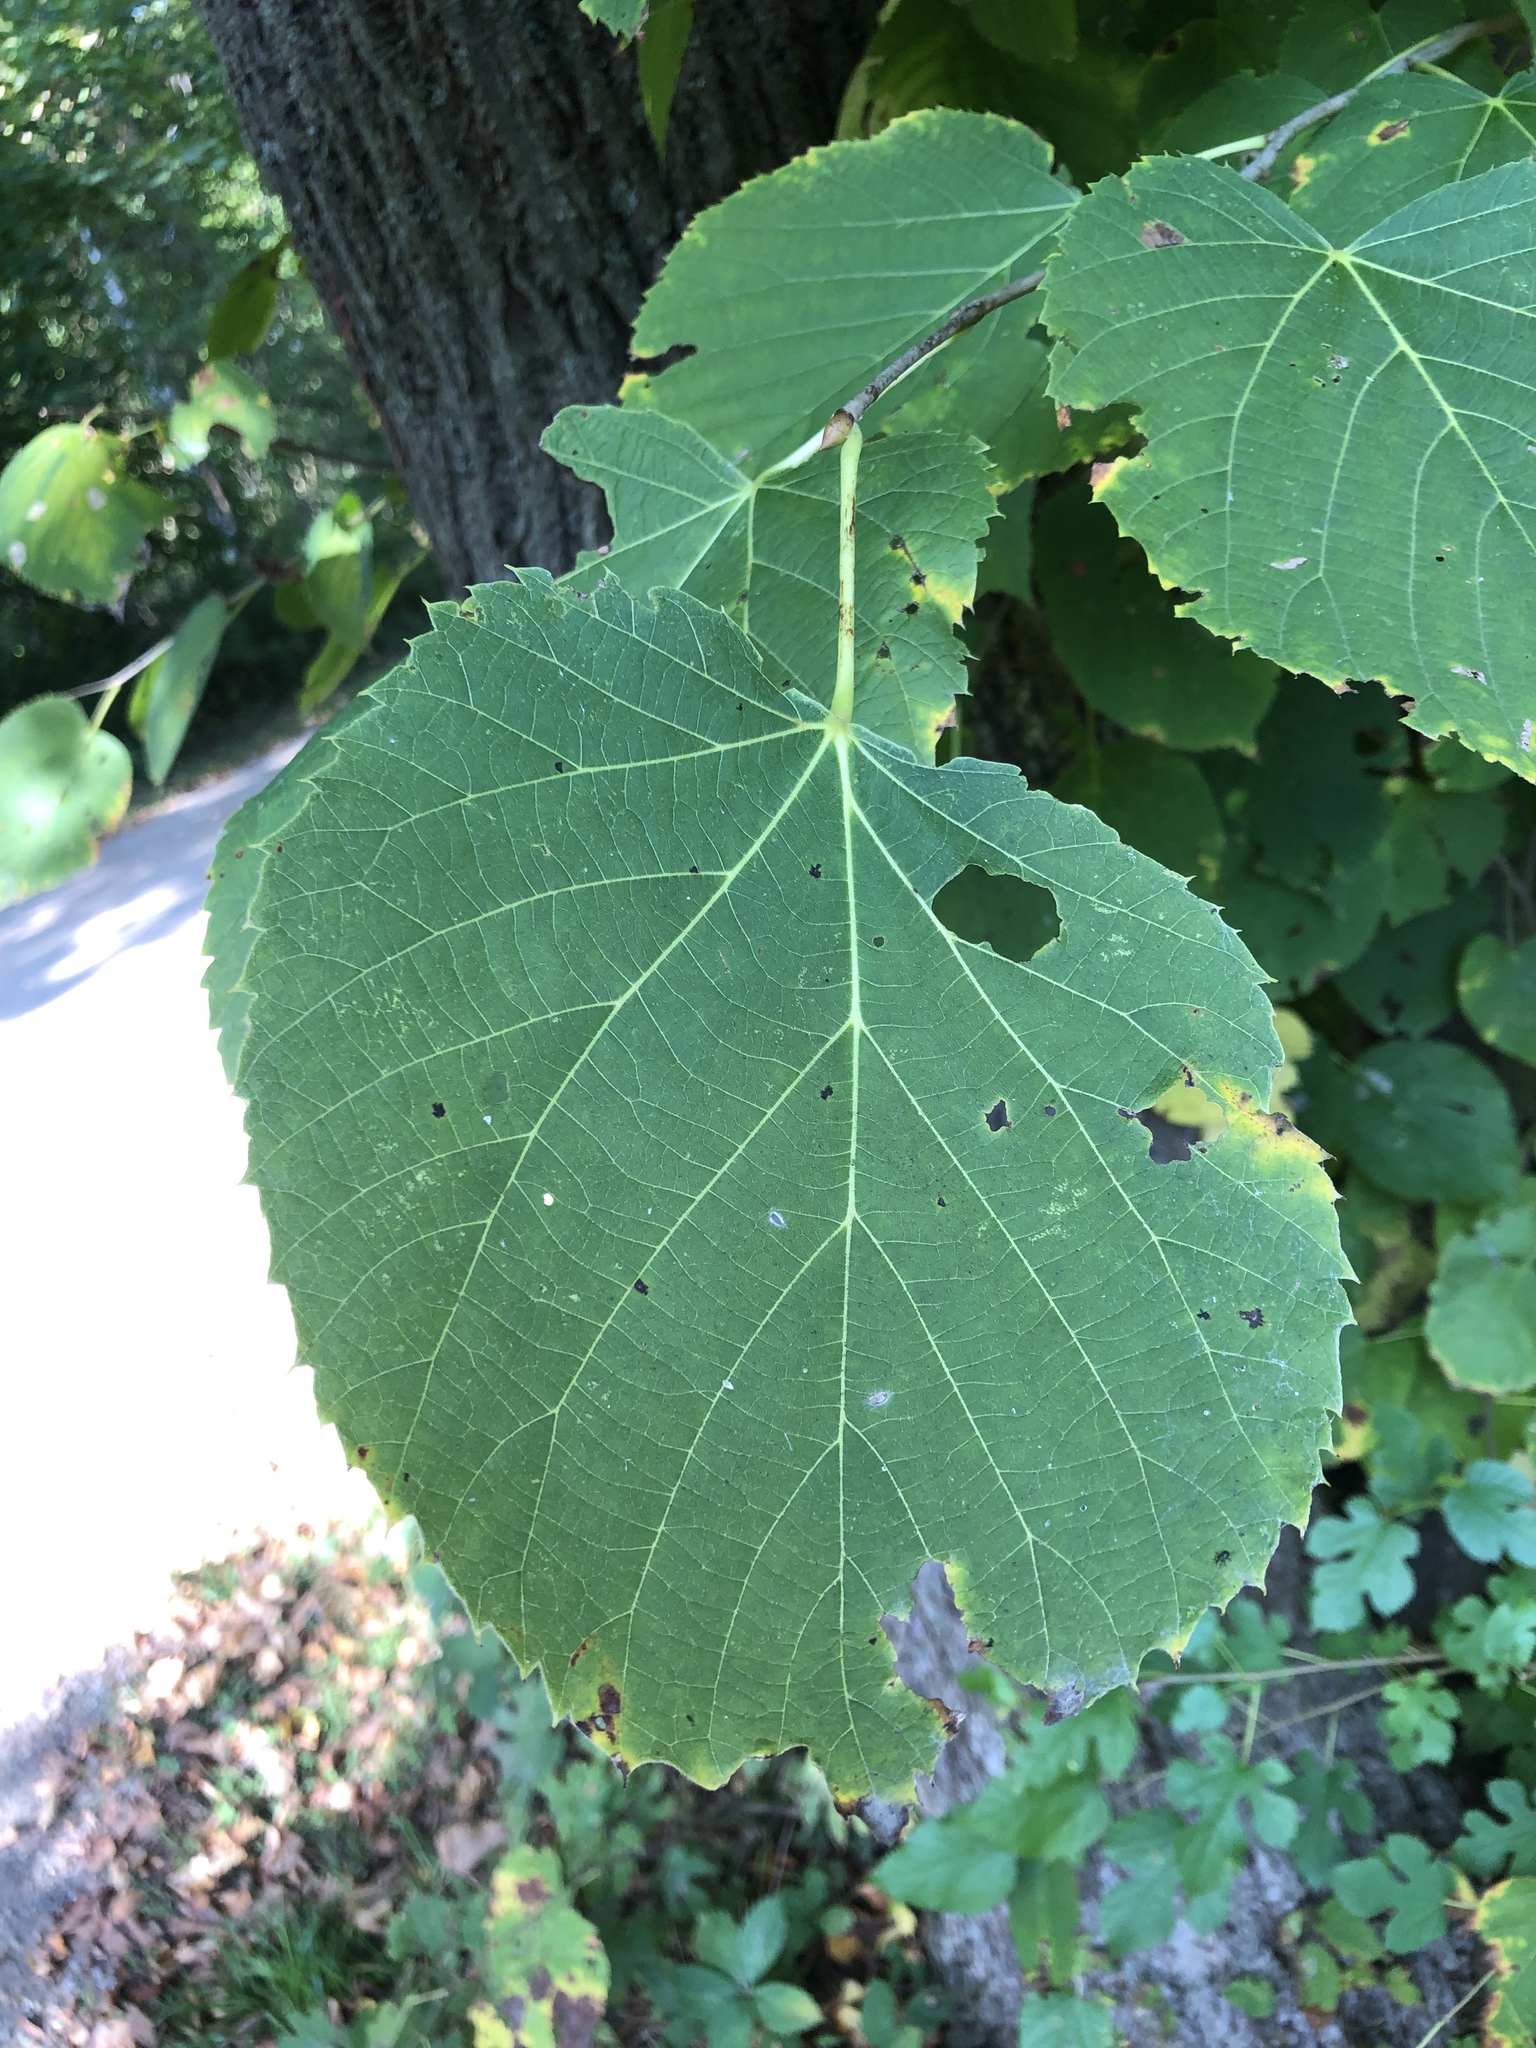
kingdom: Plantae
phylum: Tracheophyta
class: Magnoliopsida
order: Malvales
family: Malvaceae
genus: Tilia
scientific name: Tilia americana
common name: Basswood
